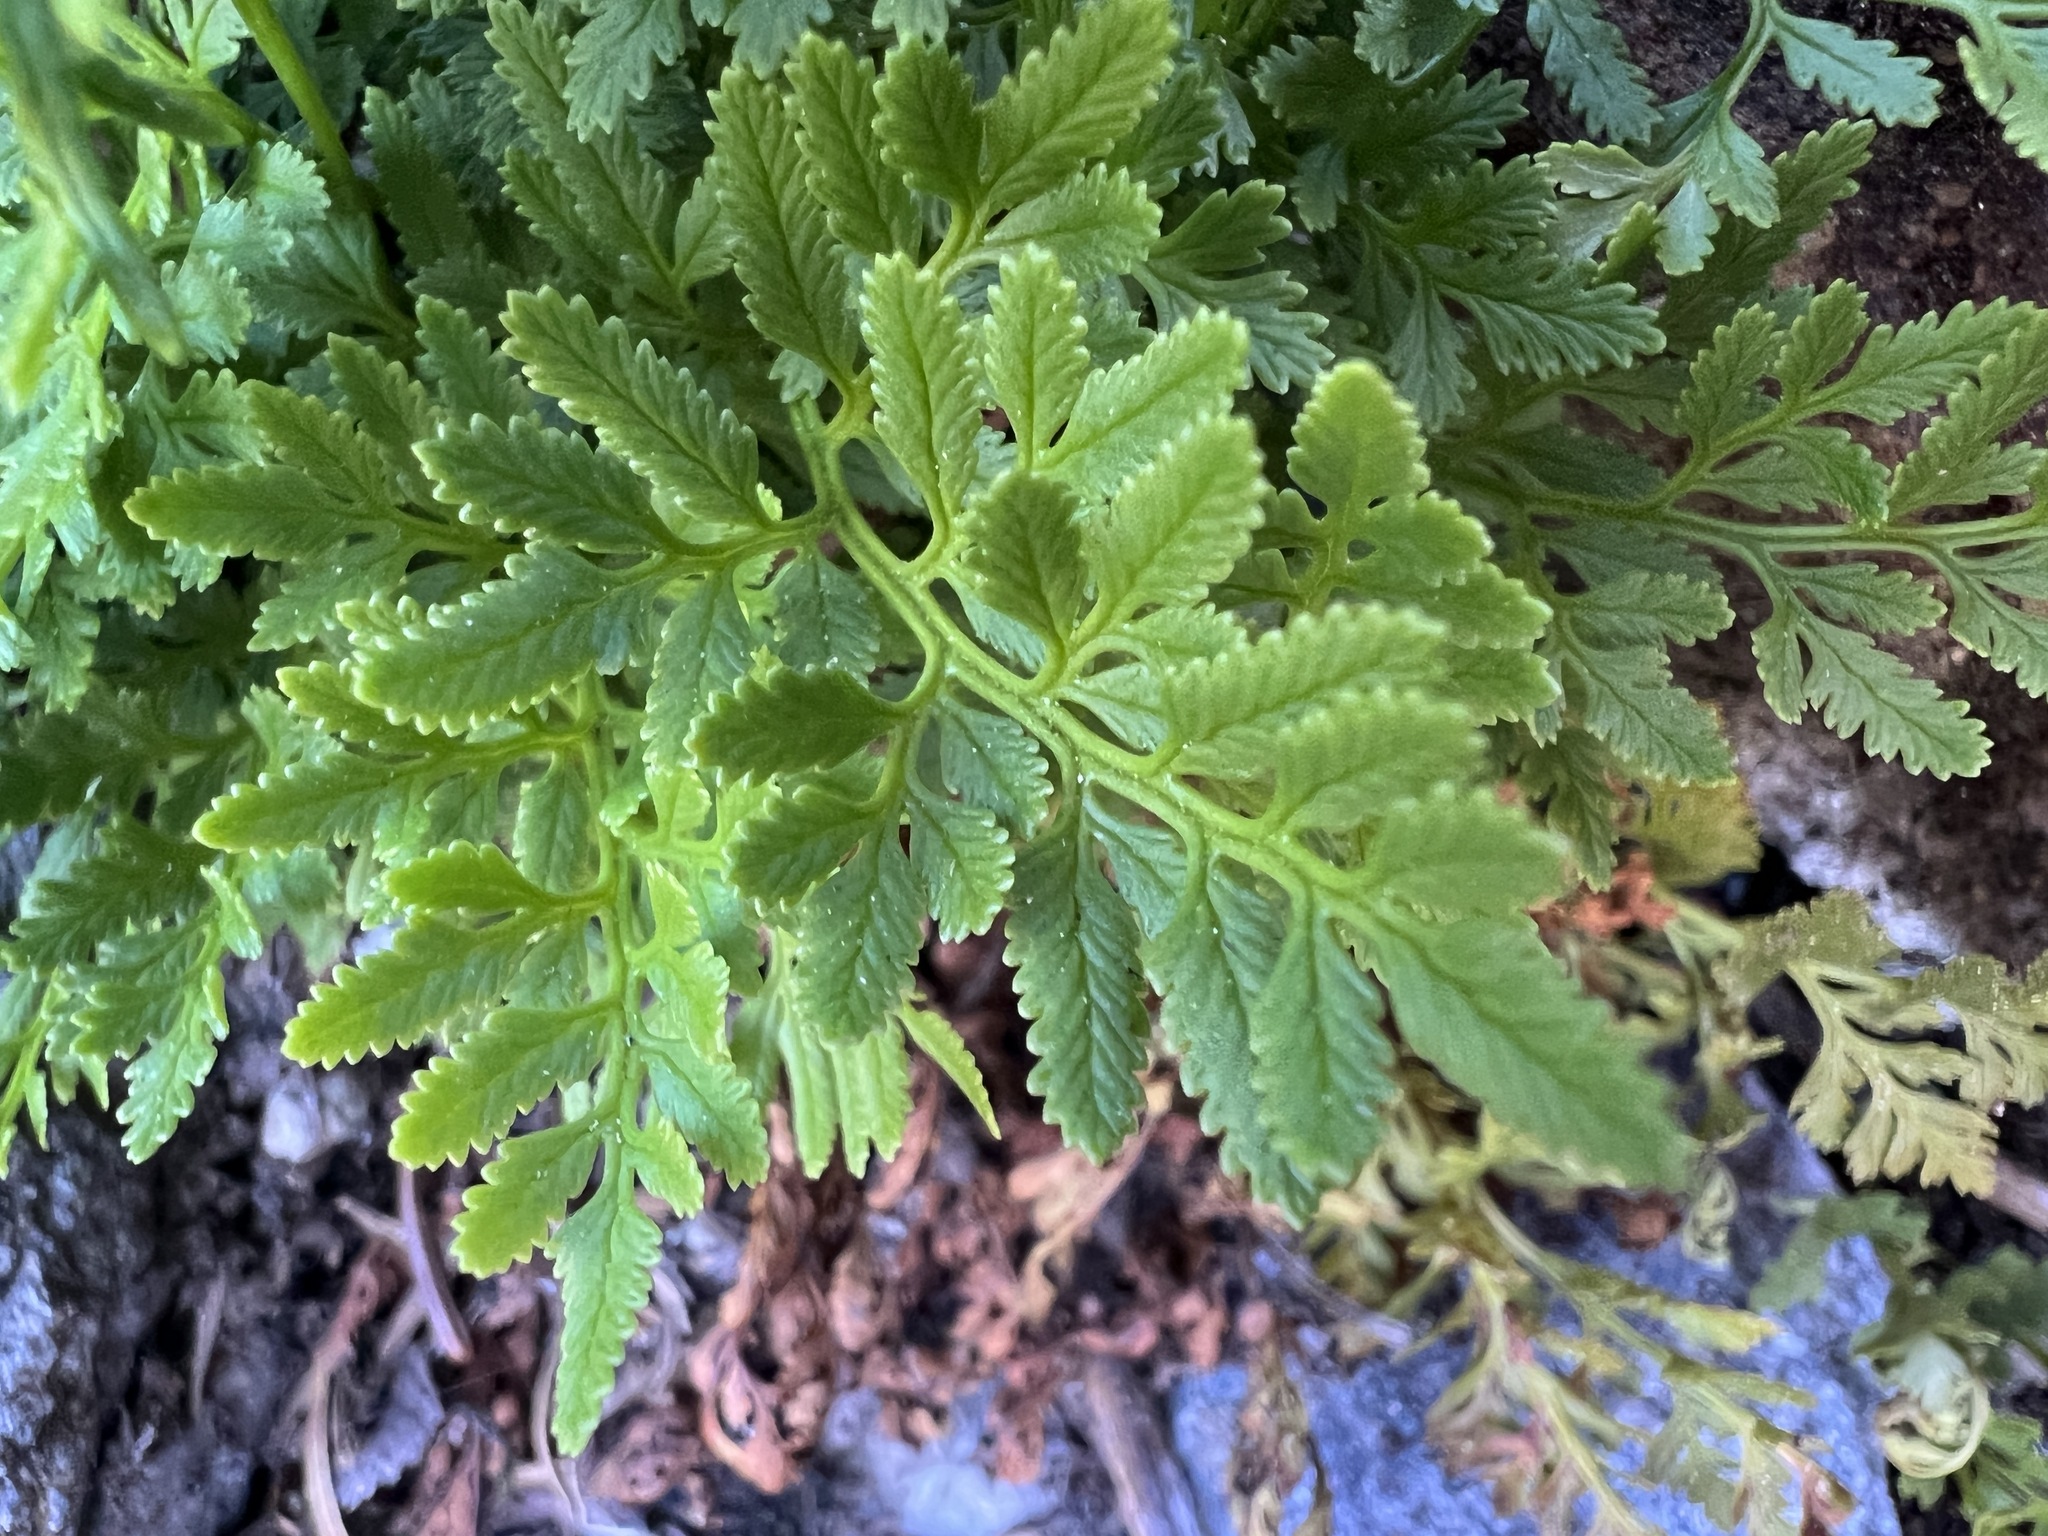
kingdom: Plantae
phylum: Tracheophyta
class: Polypodiopsida
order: Polypodiales
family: Pteridaceae
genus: Cryptogramma
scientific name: Cryptogramma acrostichoides
